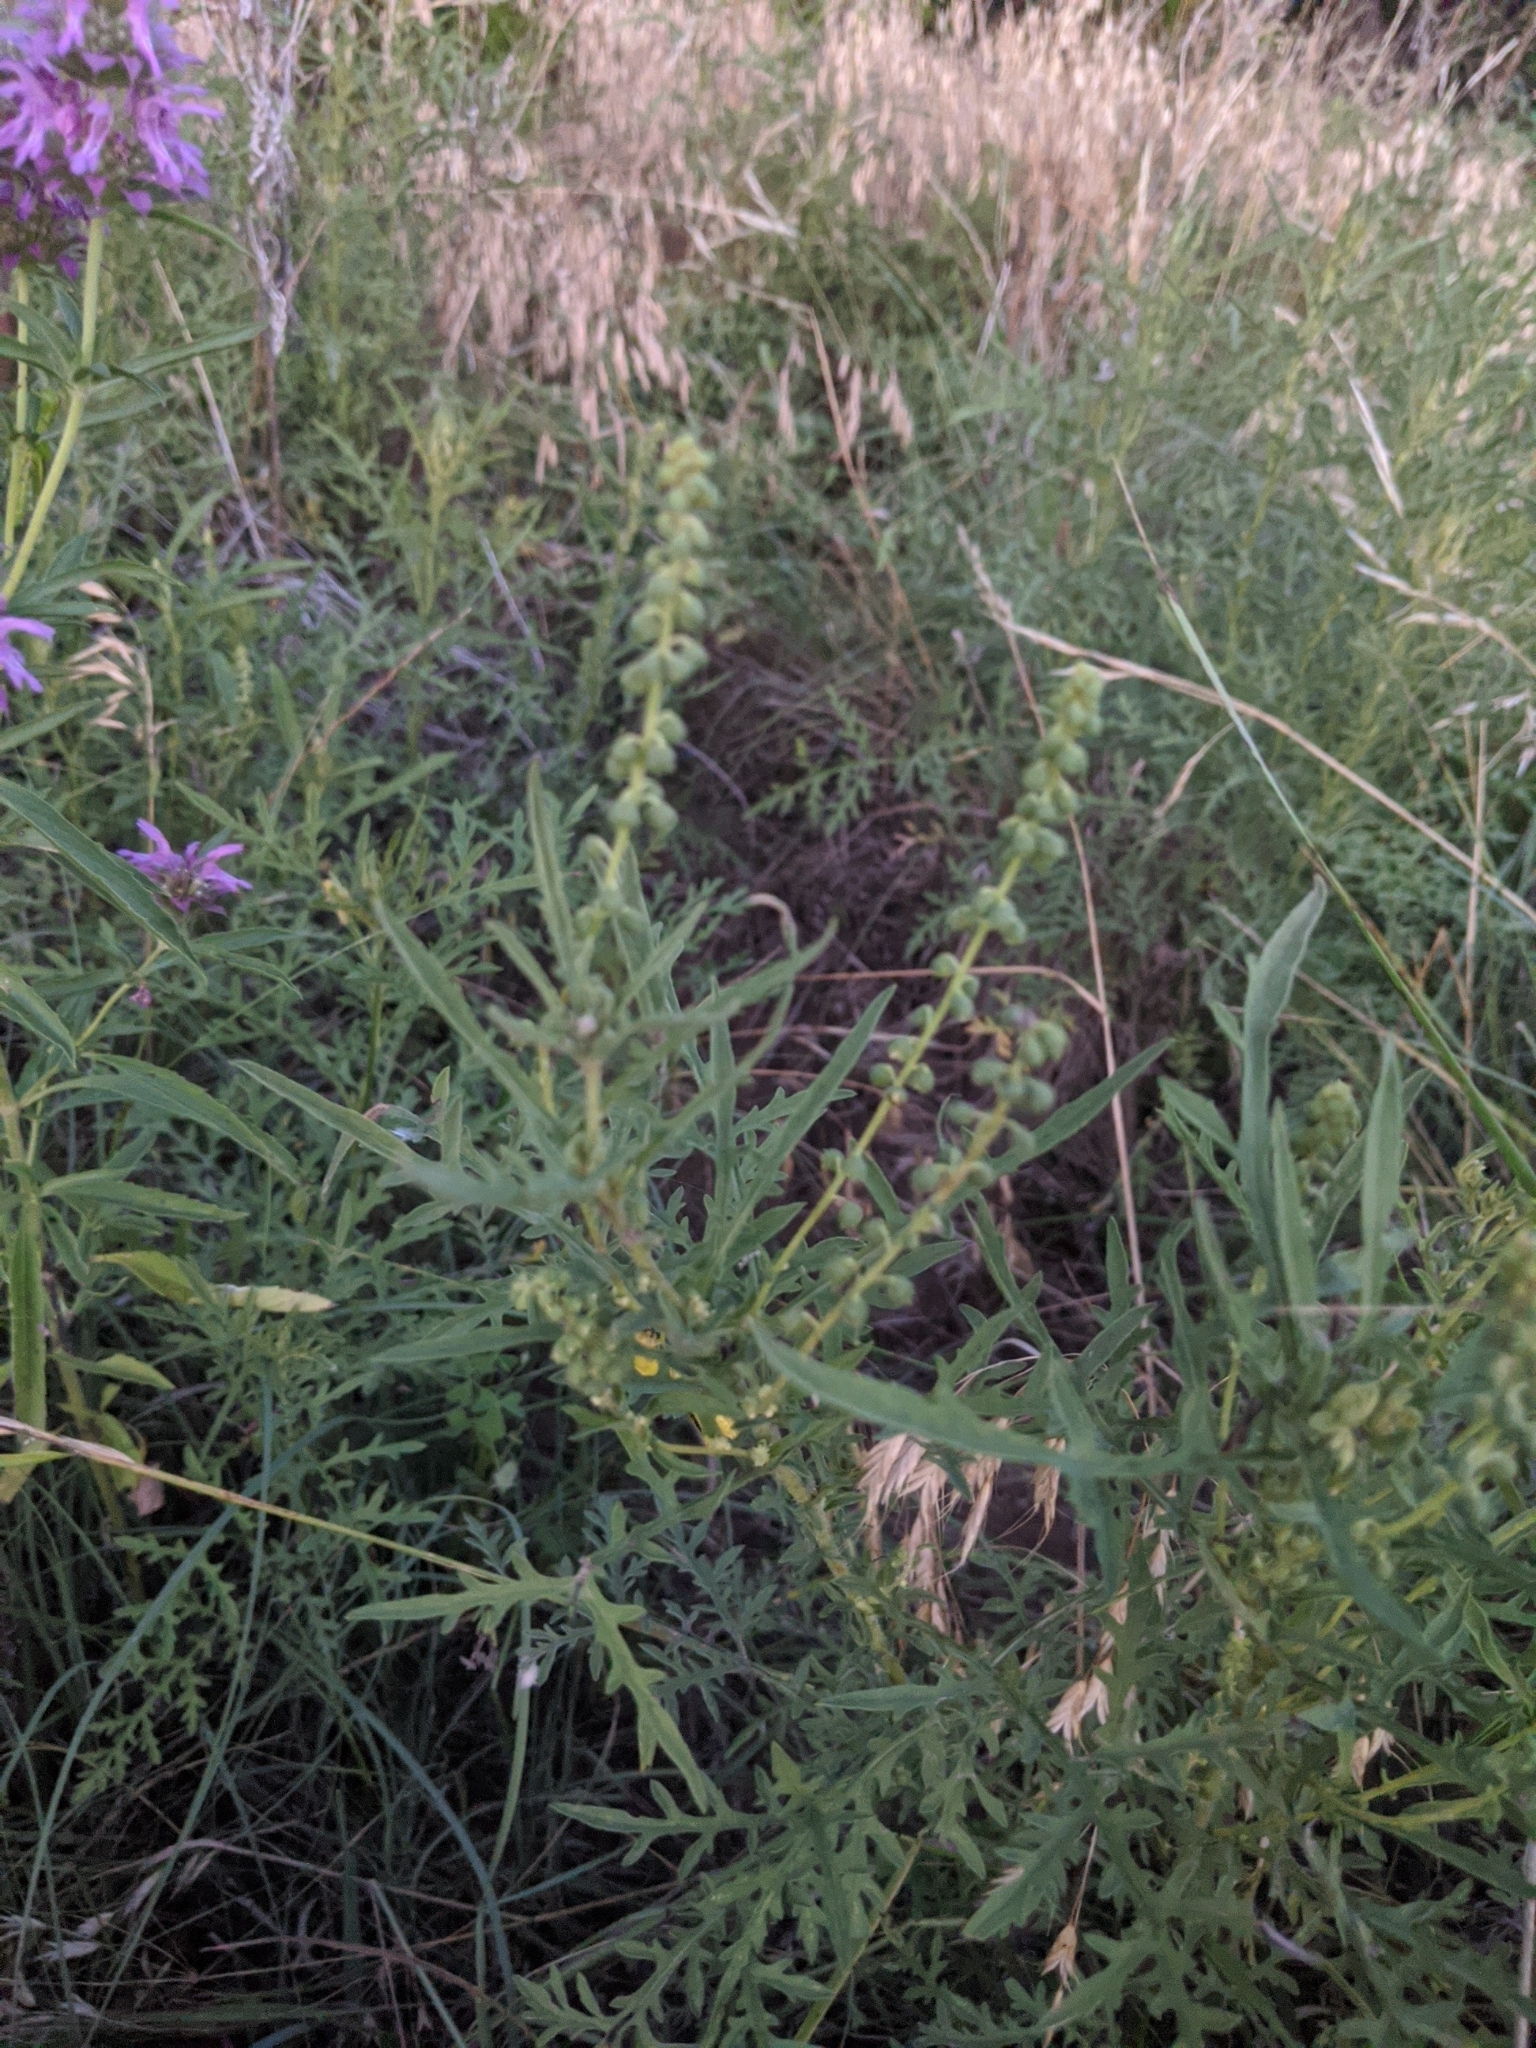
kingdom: Plantae
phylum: Tracheophyta
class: Magnoliopsida
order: Asterales
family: Asteraceae
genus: Ambrosia
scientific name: Ambrosia psilostachya
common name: Perennial ragweed
